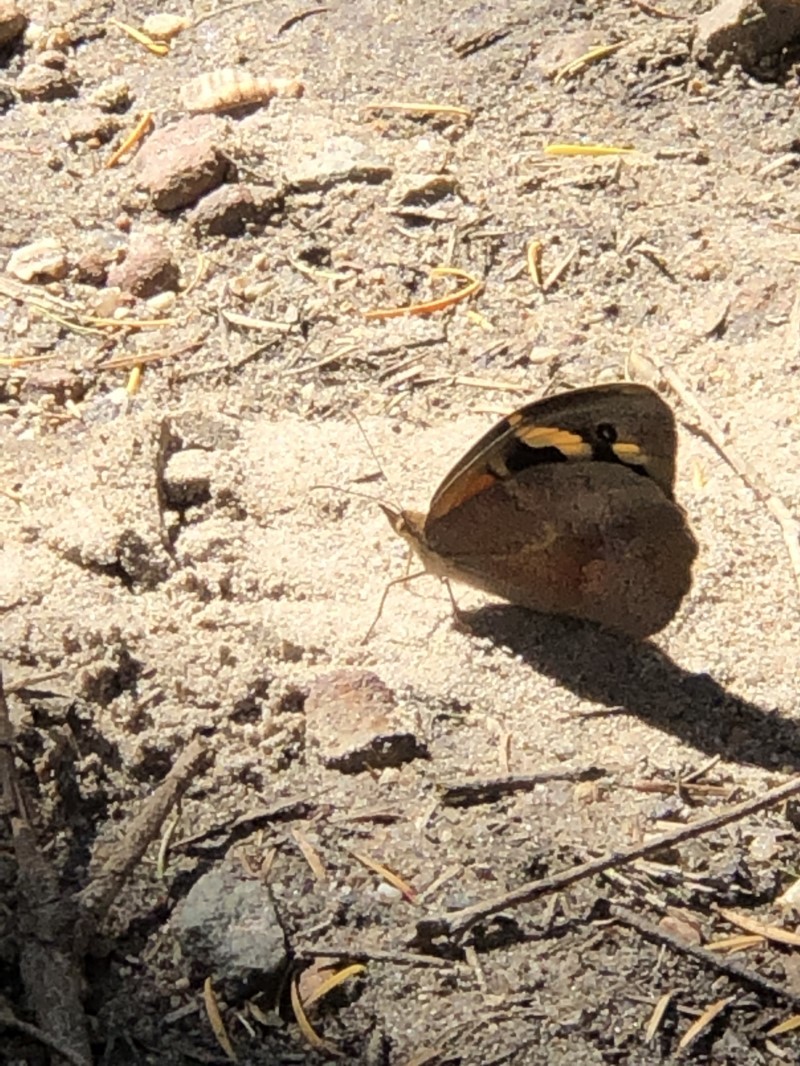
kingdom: Animalia
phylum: Arthropoda
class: Insecta
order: Lepidoptera
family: Nymphalidae
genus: Heteronympha
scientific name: Heteronympha merope
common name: Common brown
